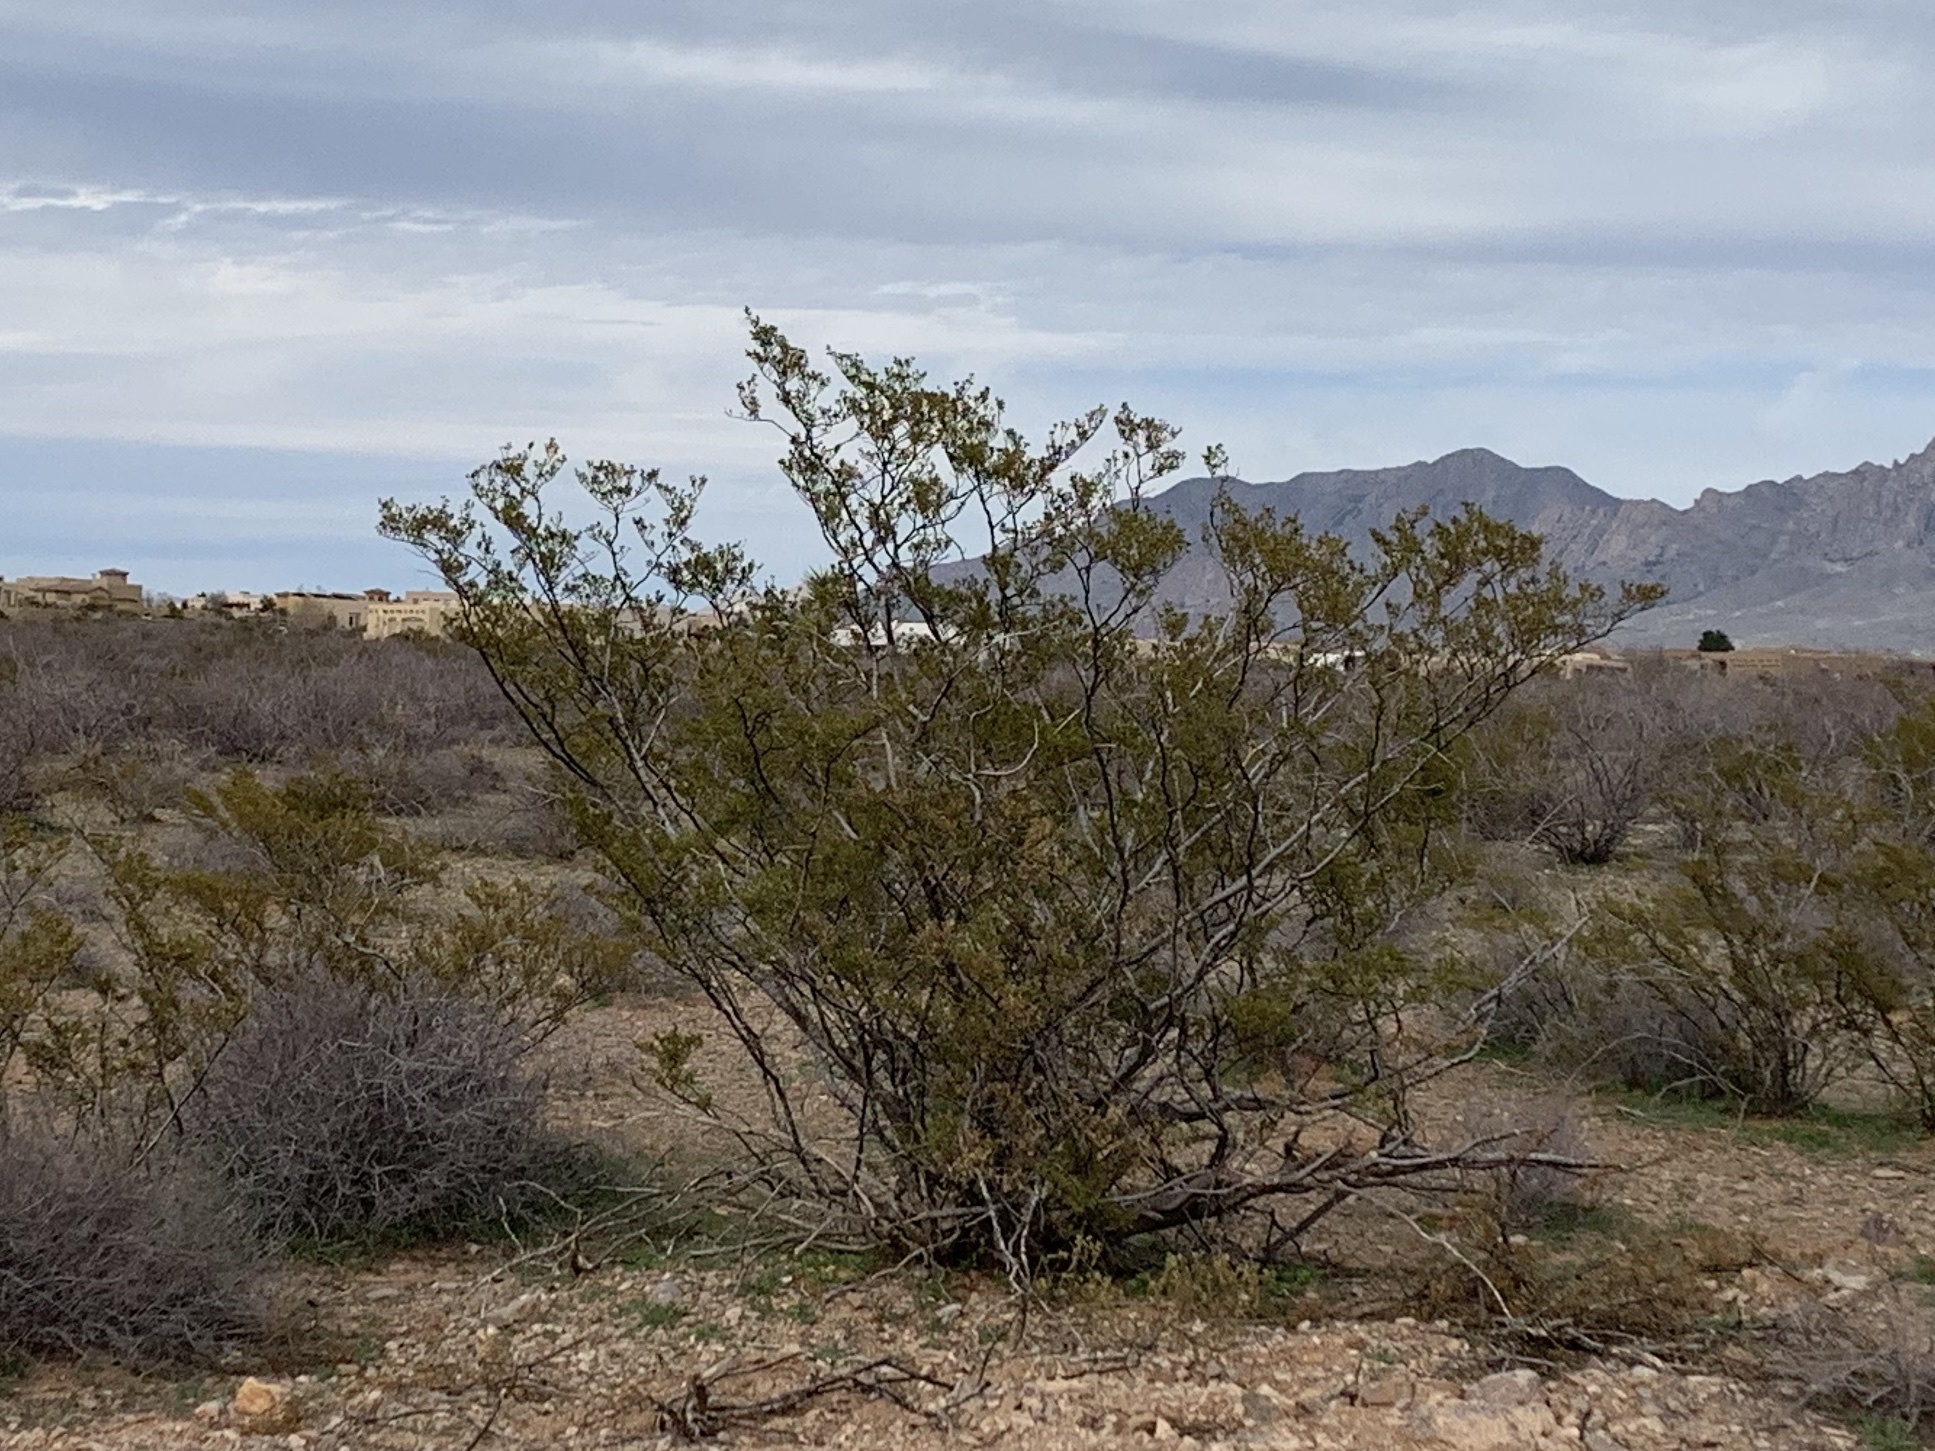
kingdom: Plantae
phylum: Tracheophyta
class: Magnoliopsida
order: Zygophyllales
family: Zygophyllaceae
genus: Larrea
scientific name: Larrea tridentata
